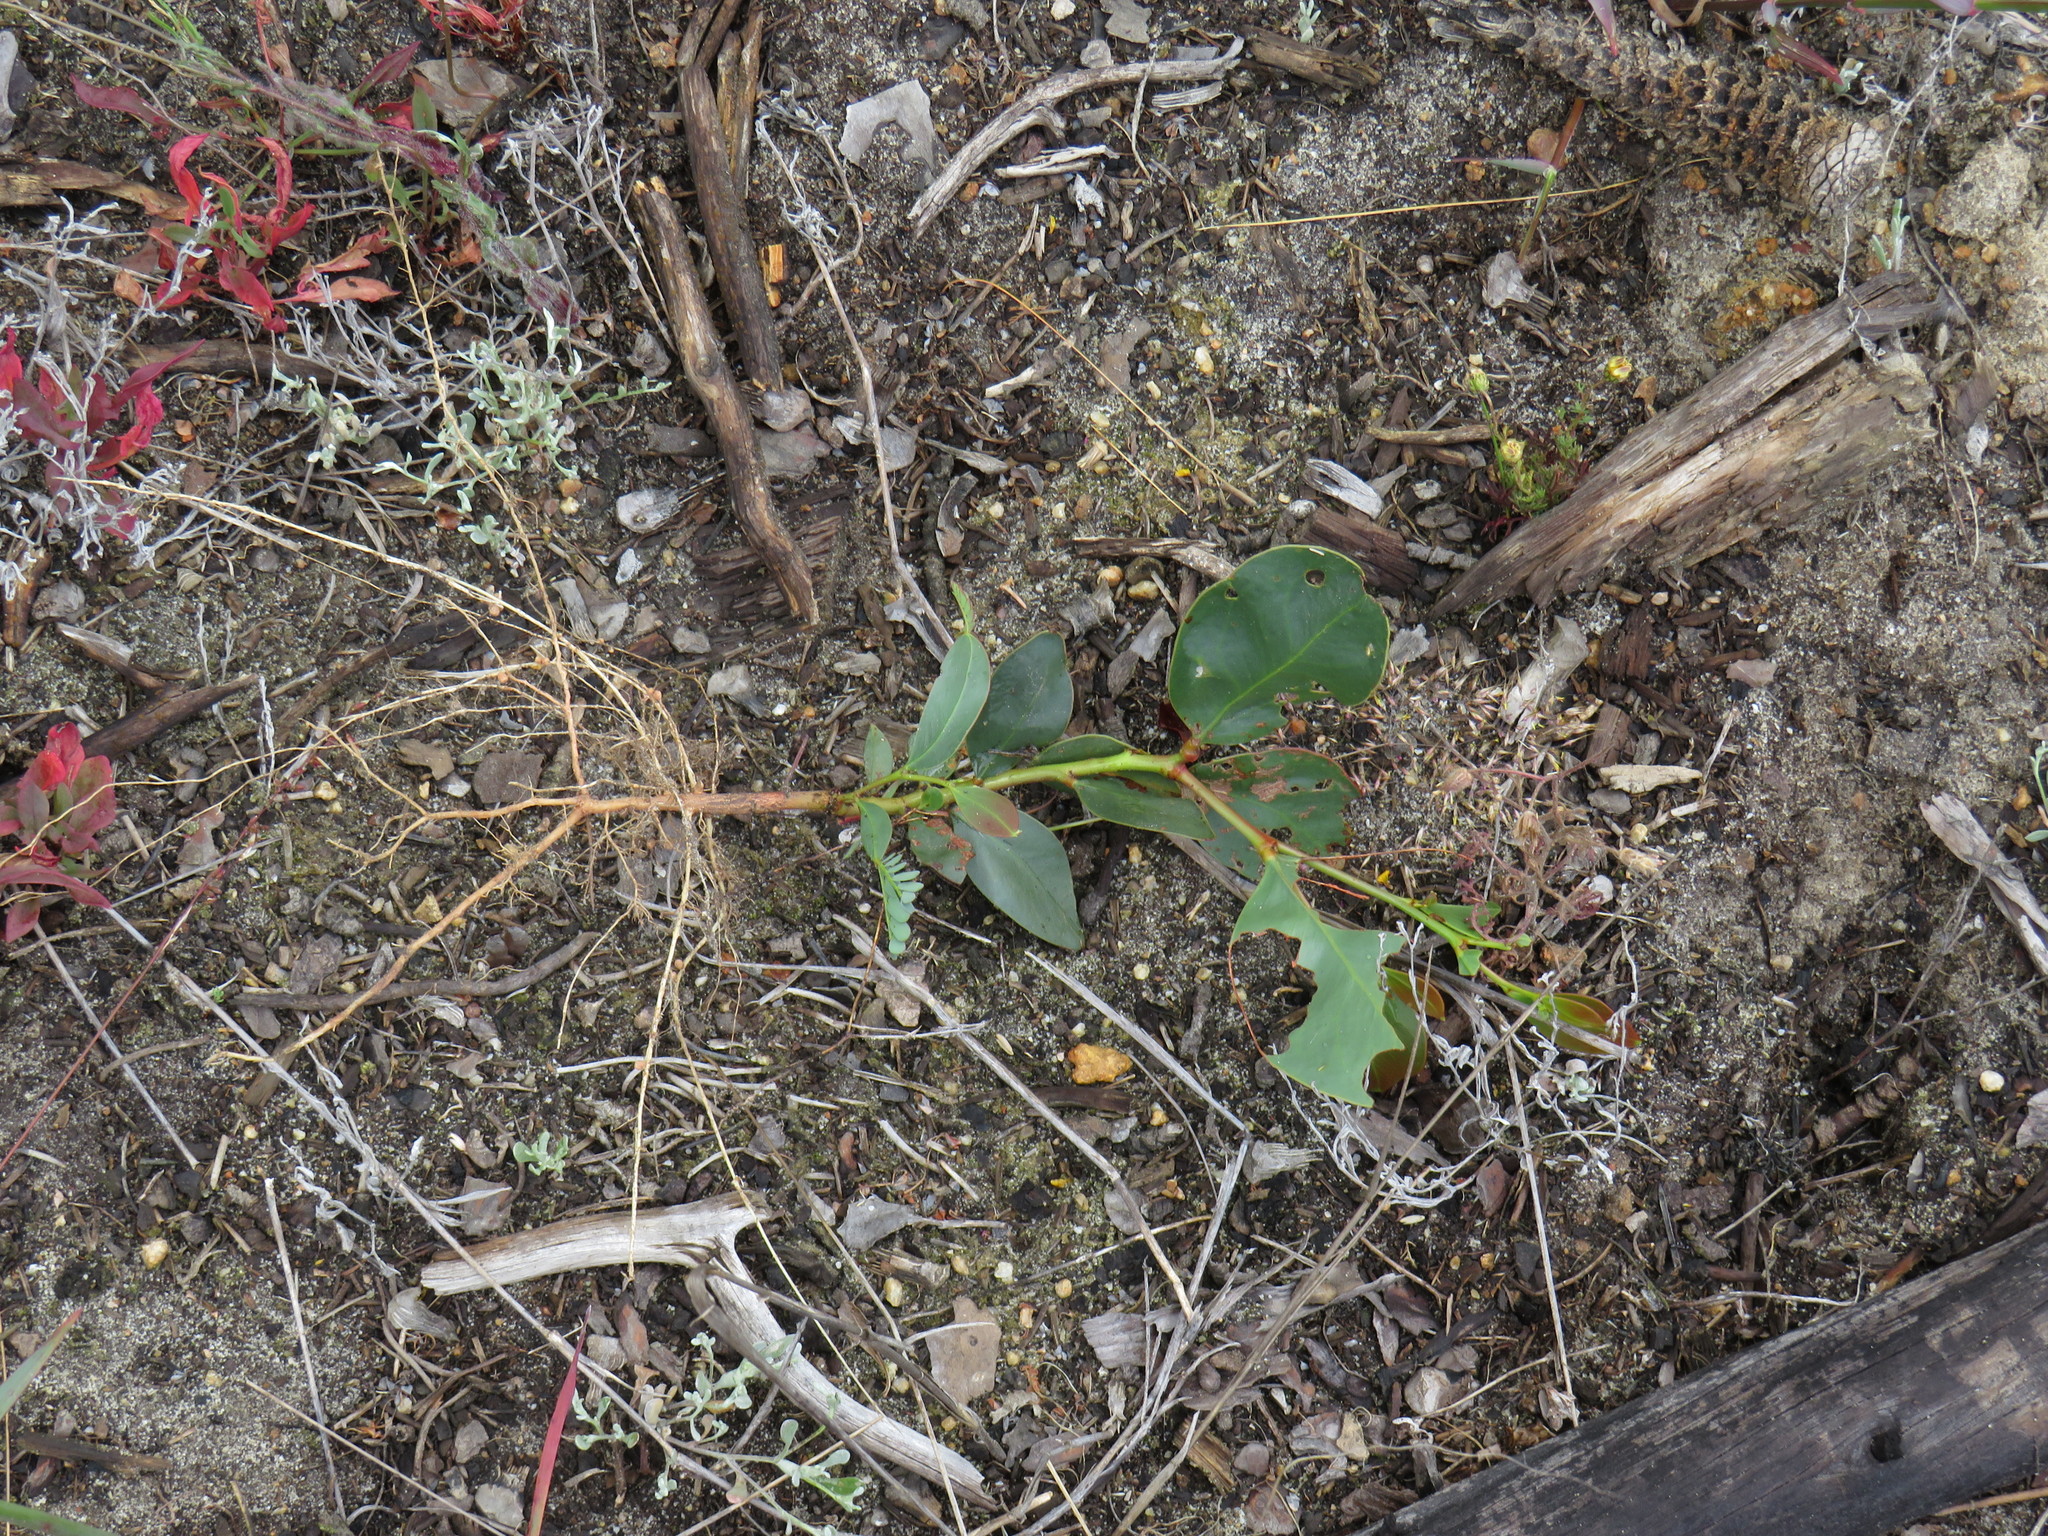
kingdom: Plantae
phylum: Tracheophyta
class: Magnoliopsida
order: Fabales
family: Fabaceae
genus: Acacia
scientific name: Acacia pycnantha
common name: Golden wattle
